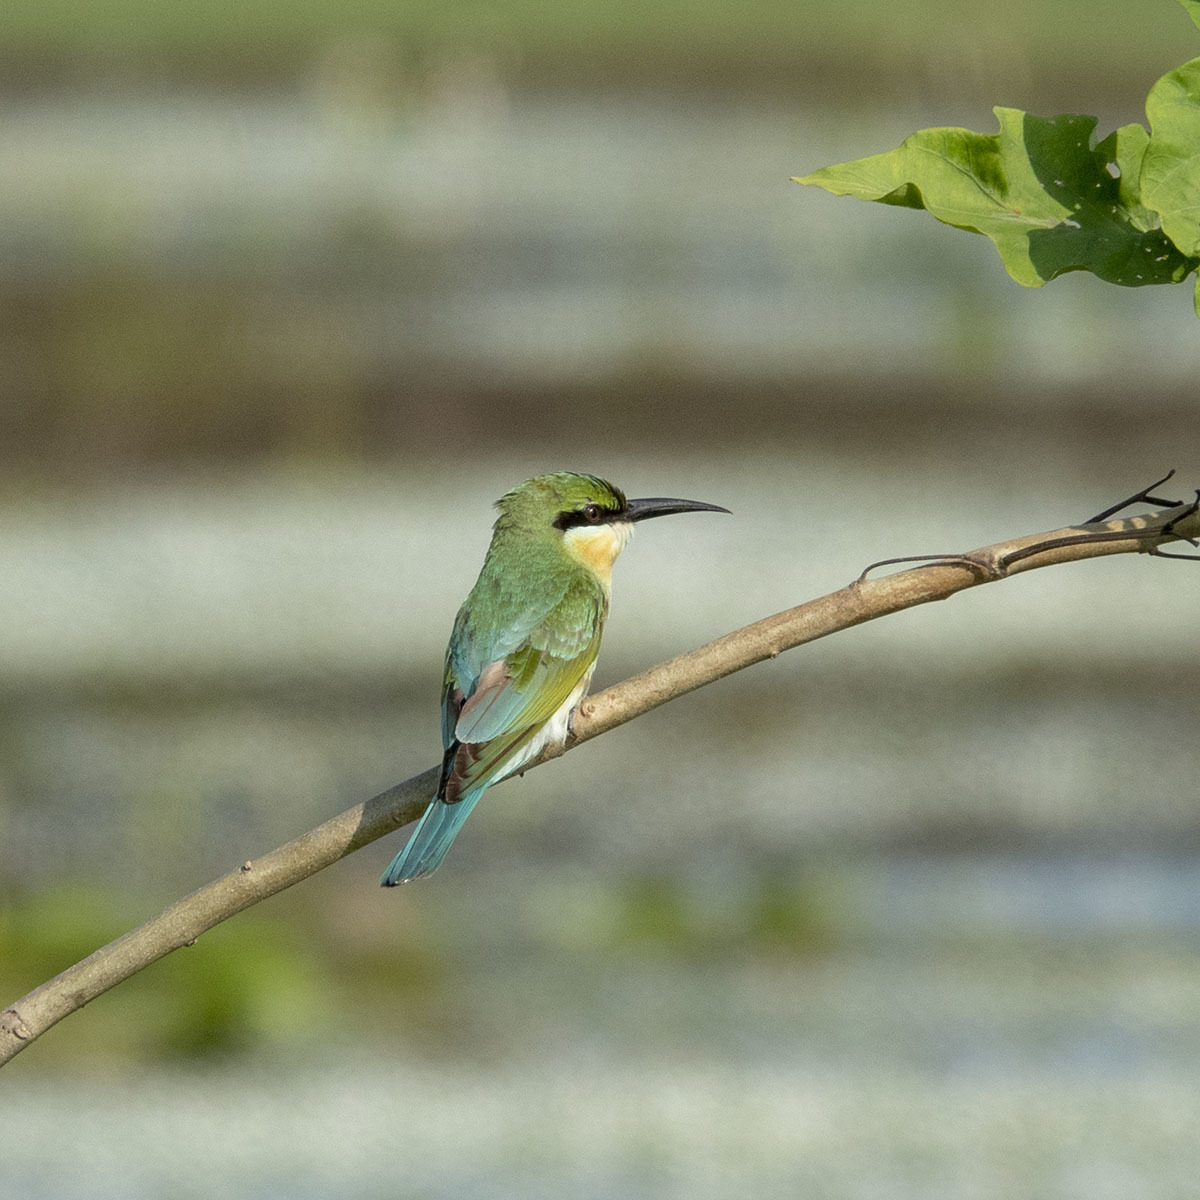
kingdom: Animalia
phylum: Chordata
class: Aves
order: Coraciiformes
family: Meropidae
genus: Merops
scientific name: Merops philippinus
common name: Blue-tailed bee-eater
